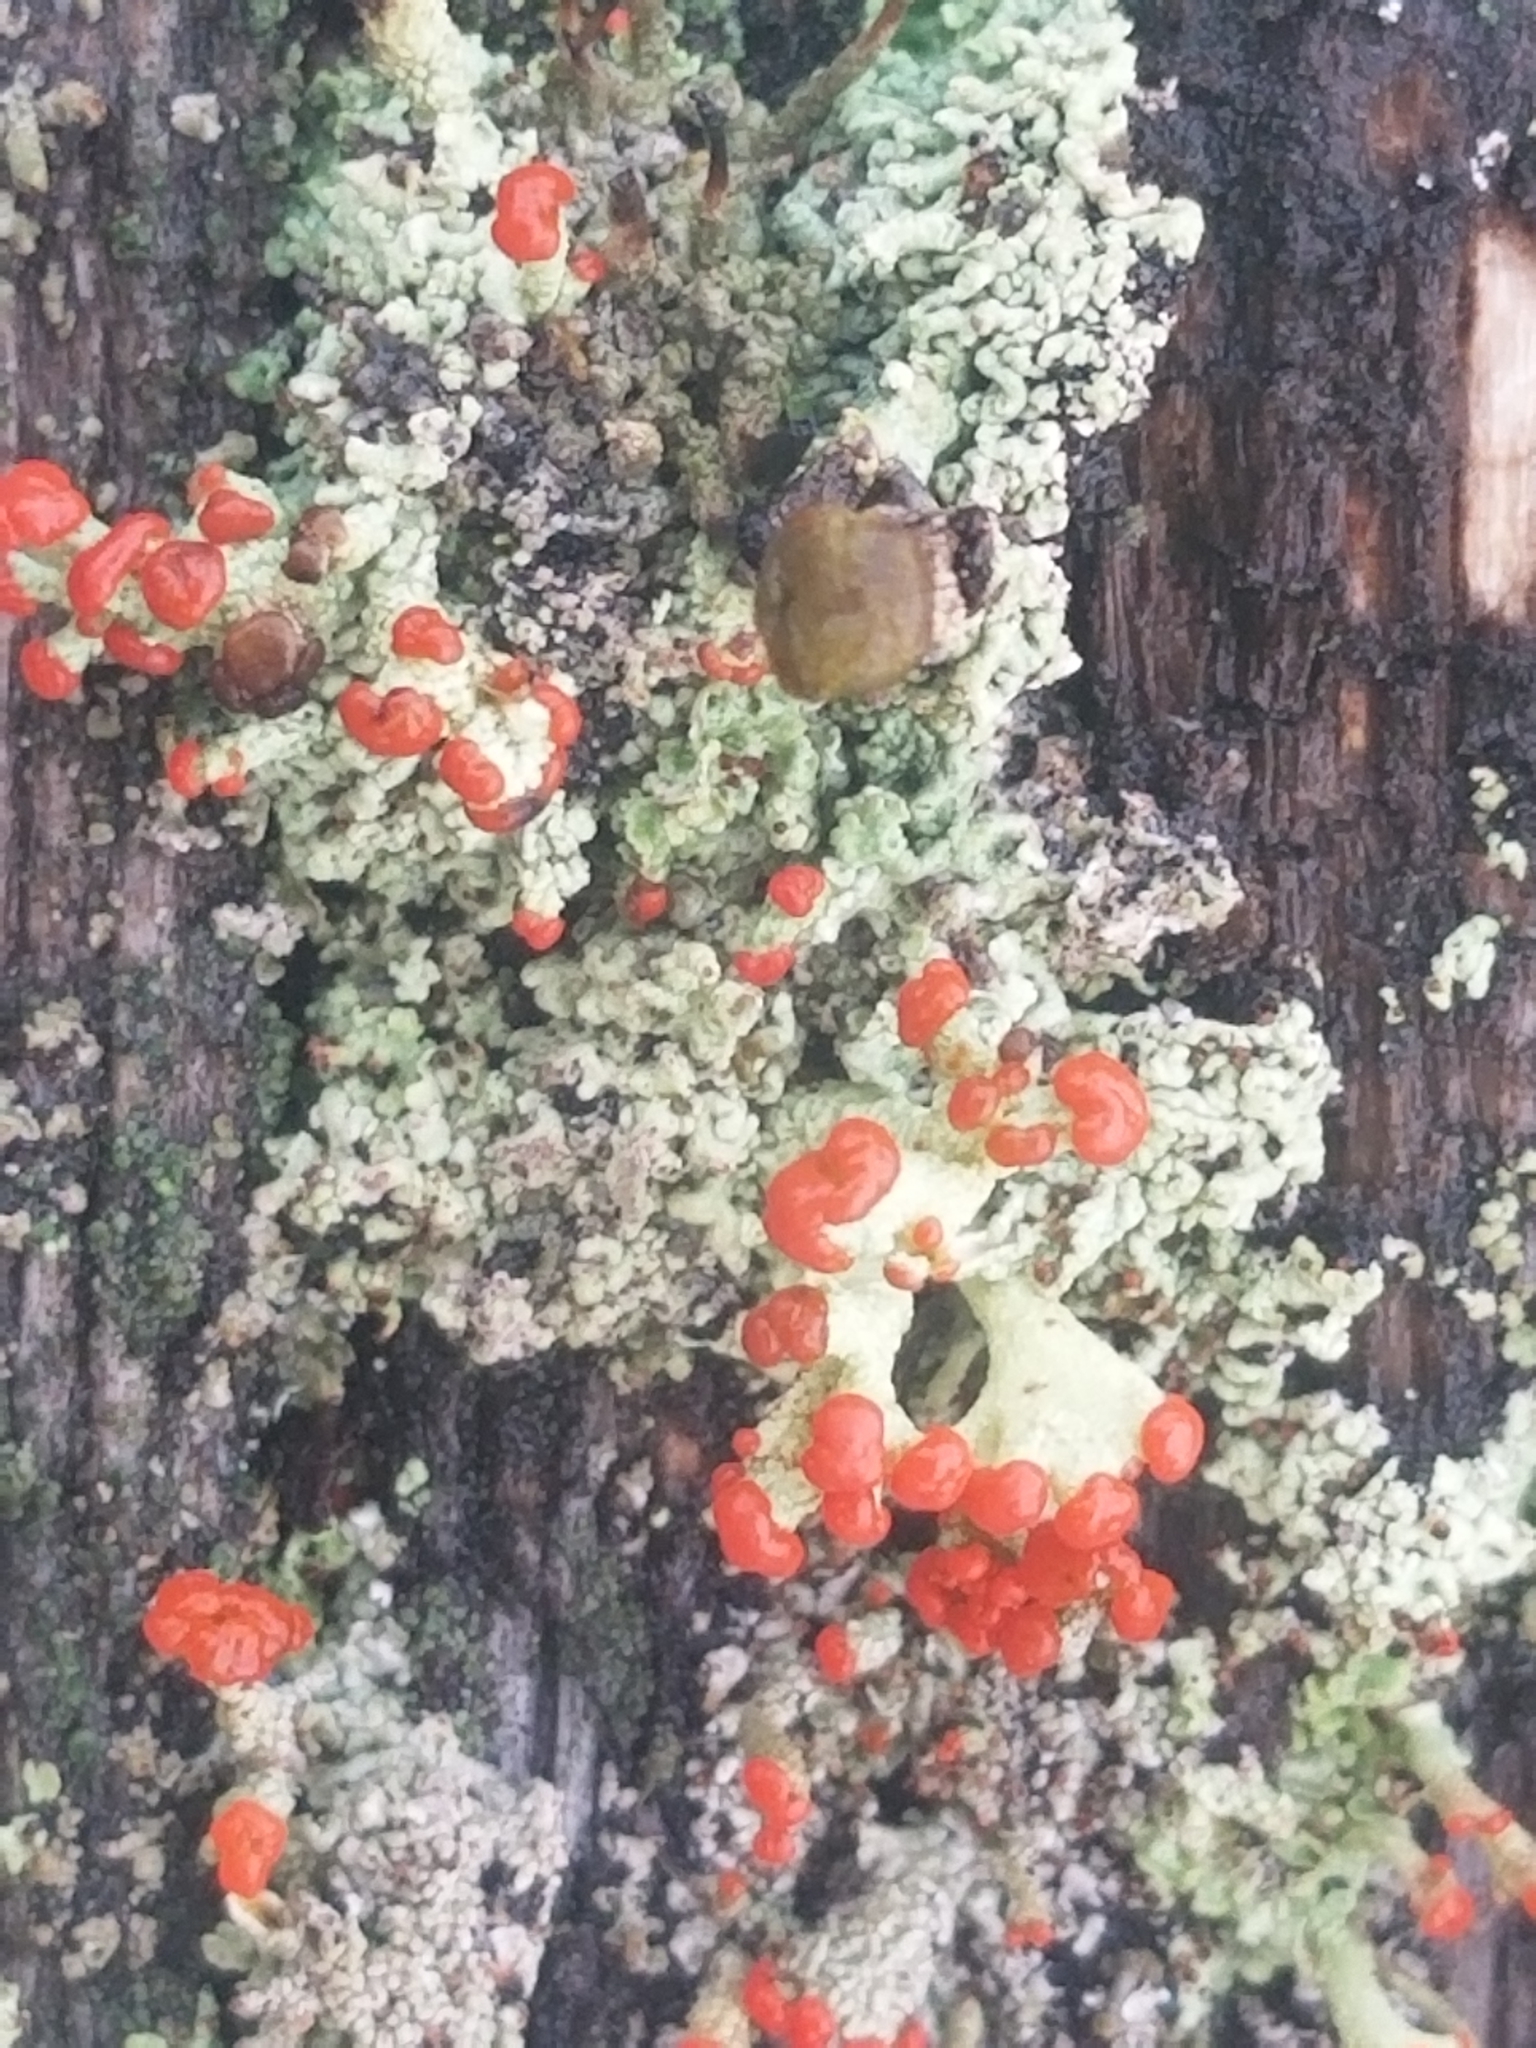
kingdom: Fungi
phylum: Ascomycota
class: Lecanoromycetes
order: Lecanorales
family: Cladoniaceae
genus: Cladonia
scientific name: Cladonia cristatella
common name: British soldier lichen
